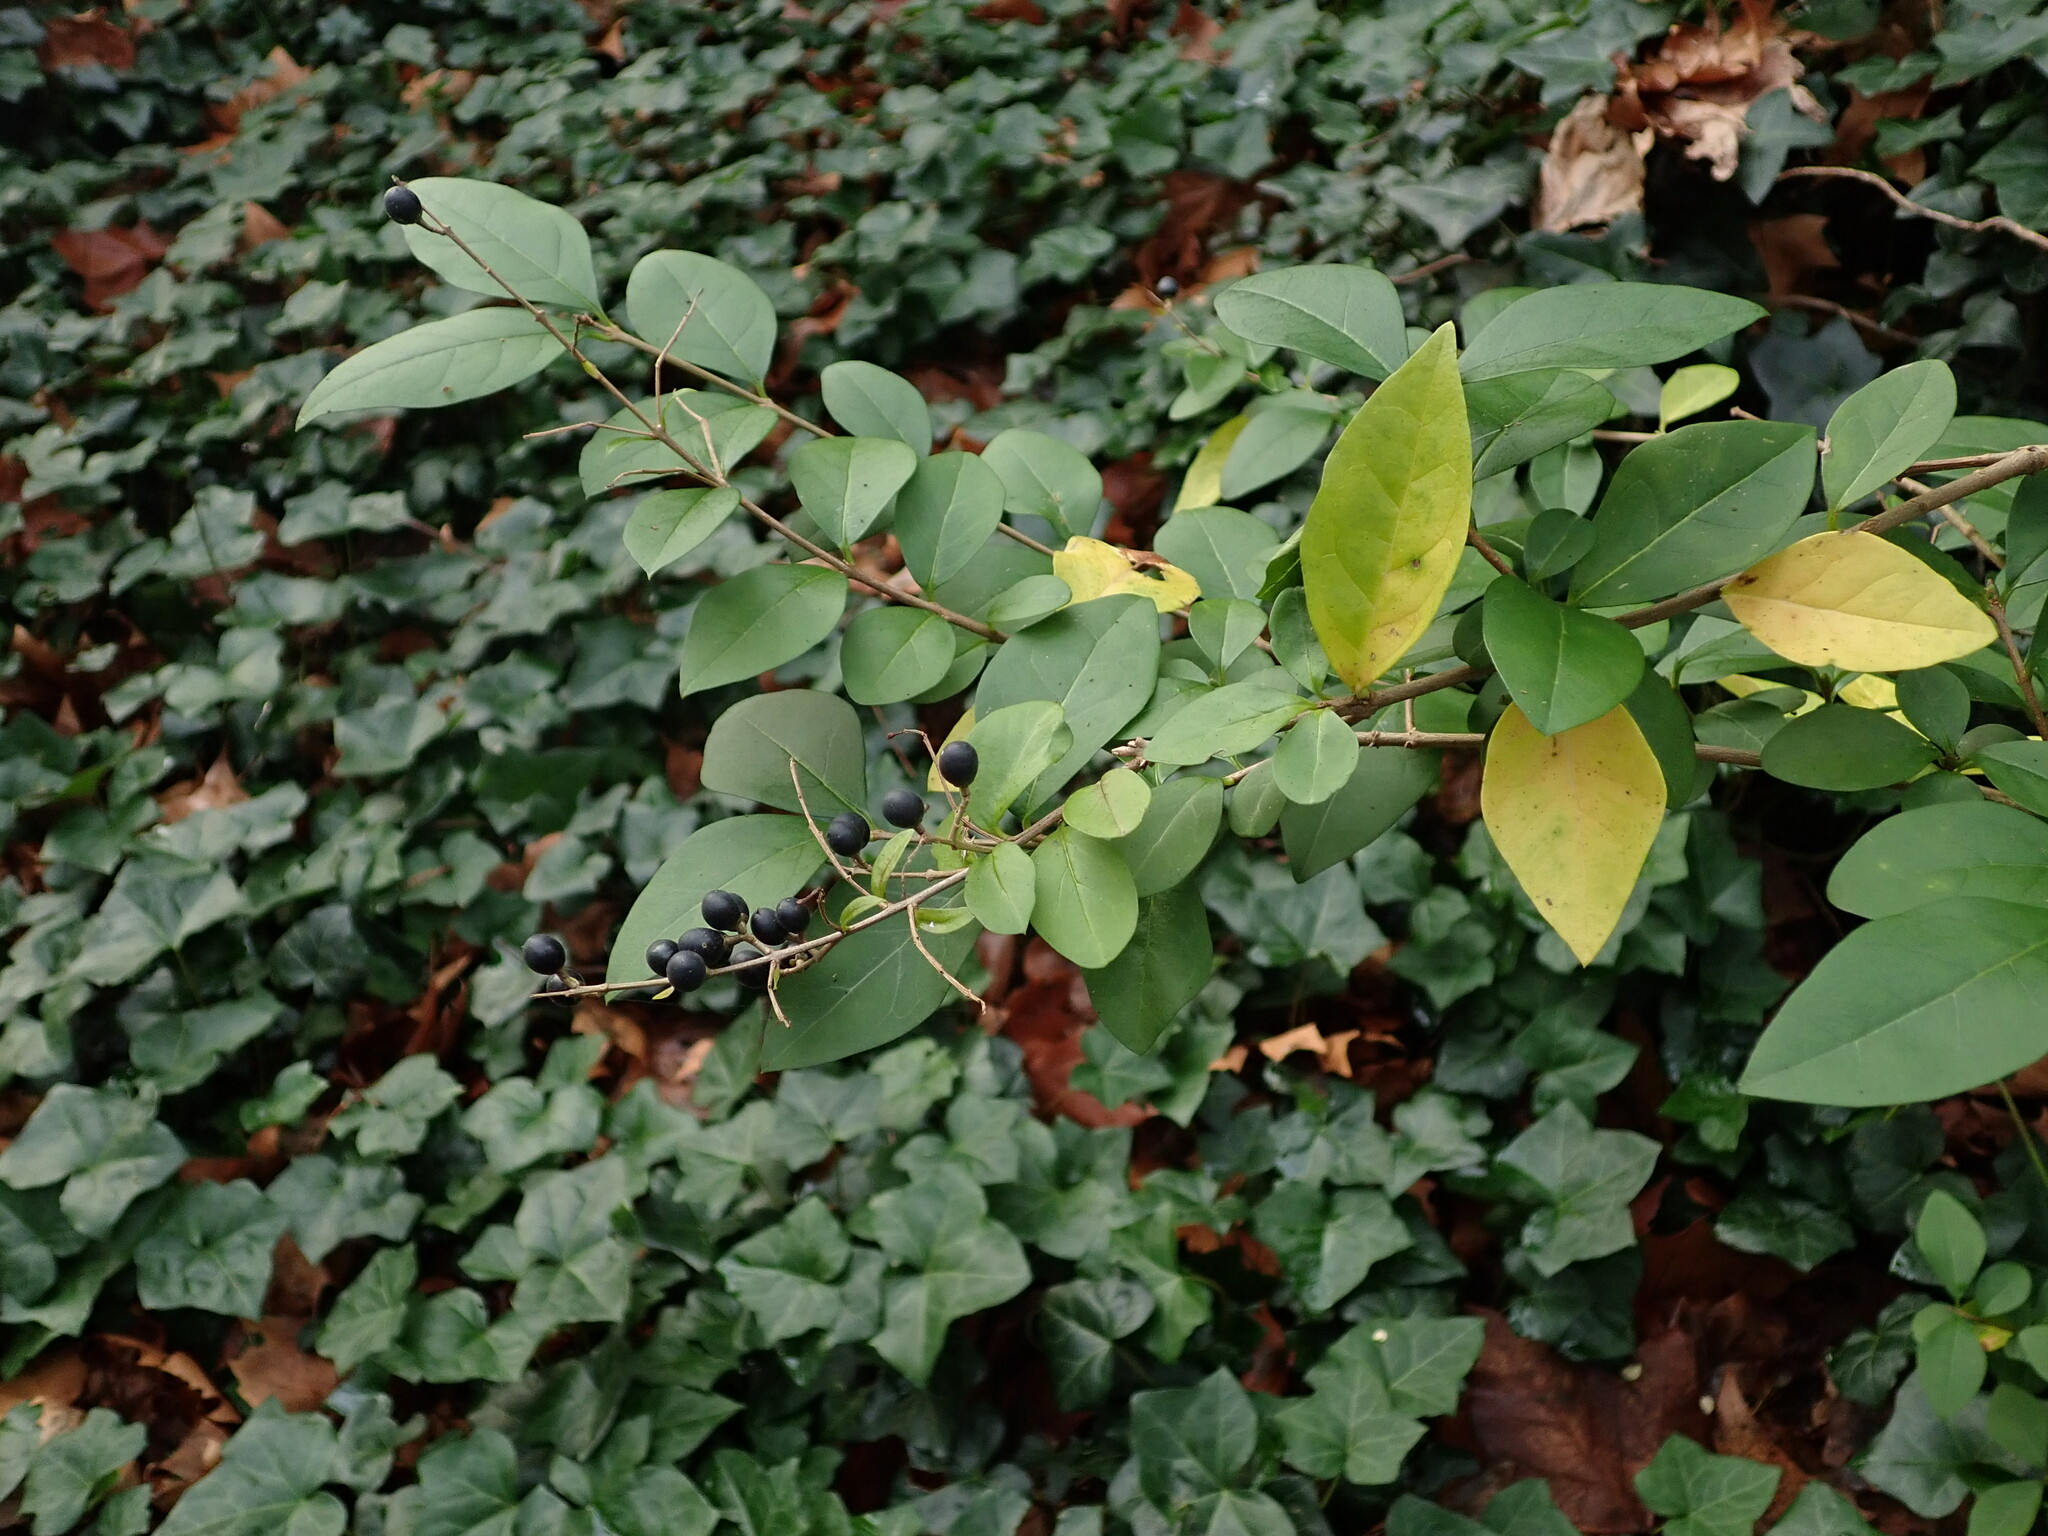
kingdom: Plantae
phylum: Tracheophyta
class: Magnoliopsida
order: Lamiales
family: Oleaceae
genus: Ligustrum
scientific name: Ligustrum ovalifolium
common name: California privet
